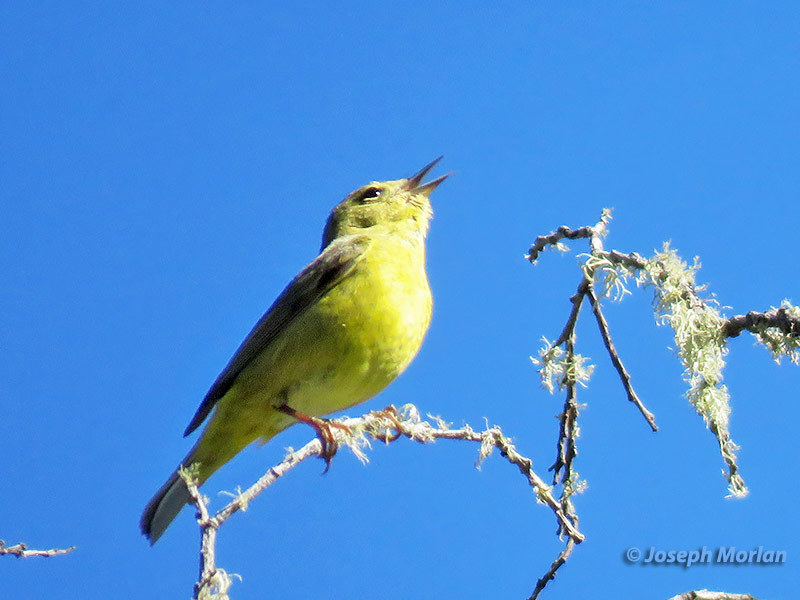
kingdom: Animalia
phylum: Chordata
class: Aves
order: Passeriformes
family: Parulidae
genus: Leiothlypis
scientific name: Leiothlypis celata
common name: Orange-crowned warbler
